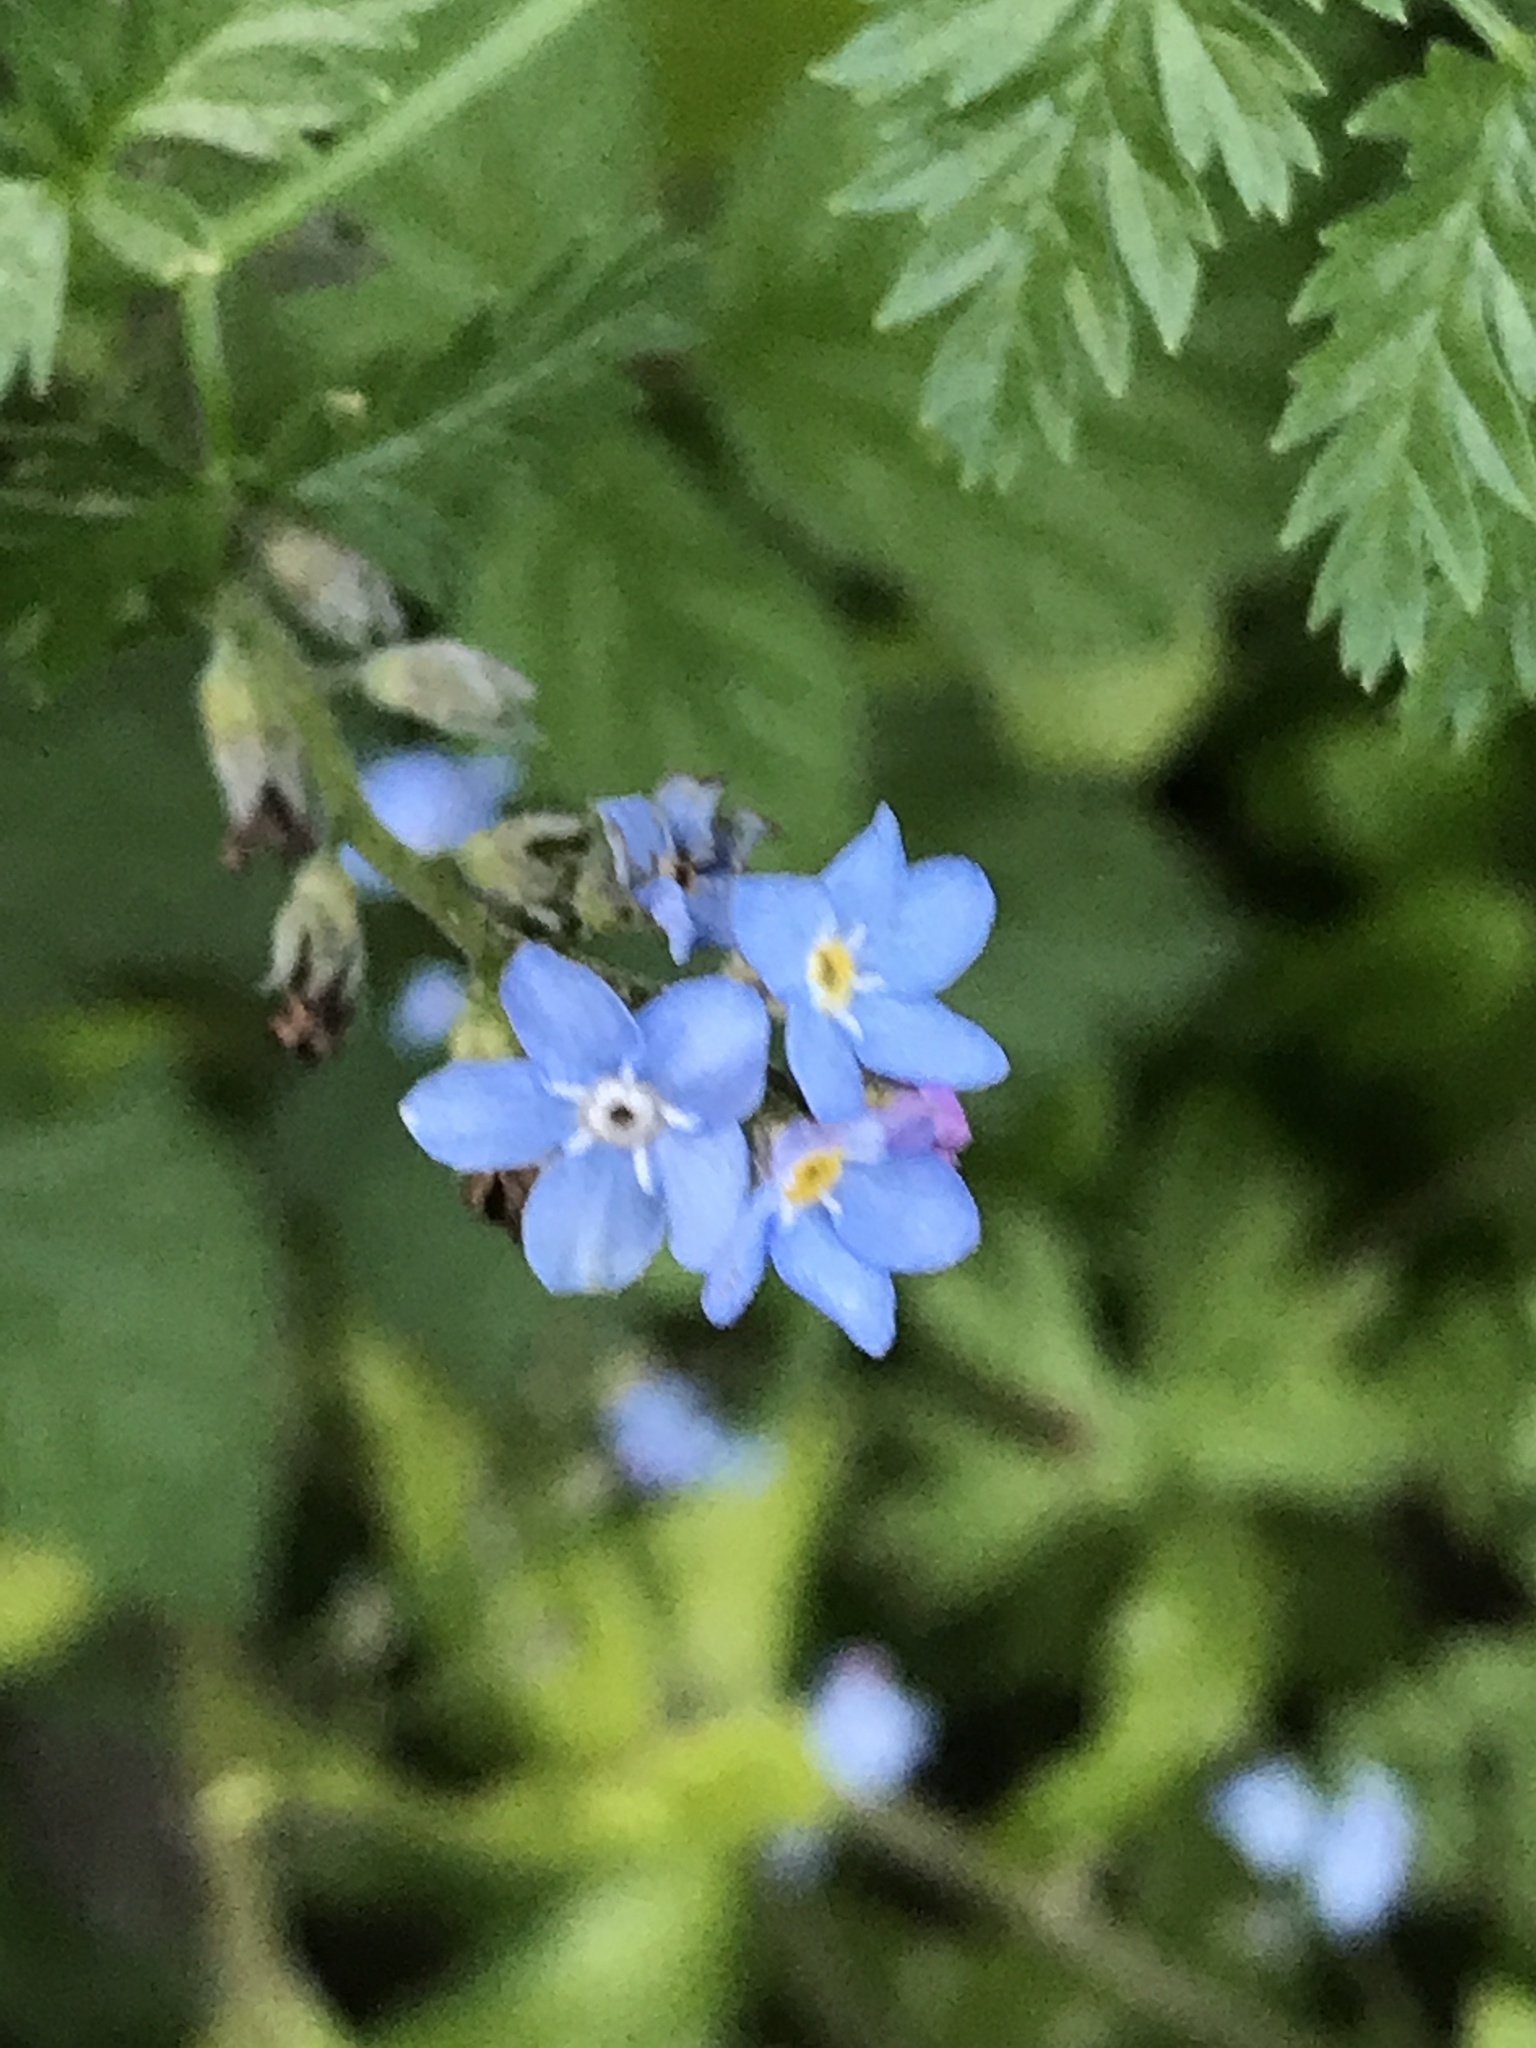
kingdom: Plantae
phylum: Tracheophyta
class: Magnoliopsida
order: Boraginales
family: Boraginaceae
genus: Myosotis
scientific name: Myosotis latifolia
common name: Broadleaf forget-me-not
